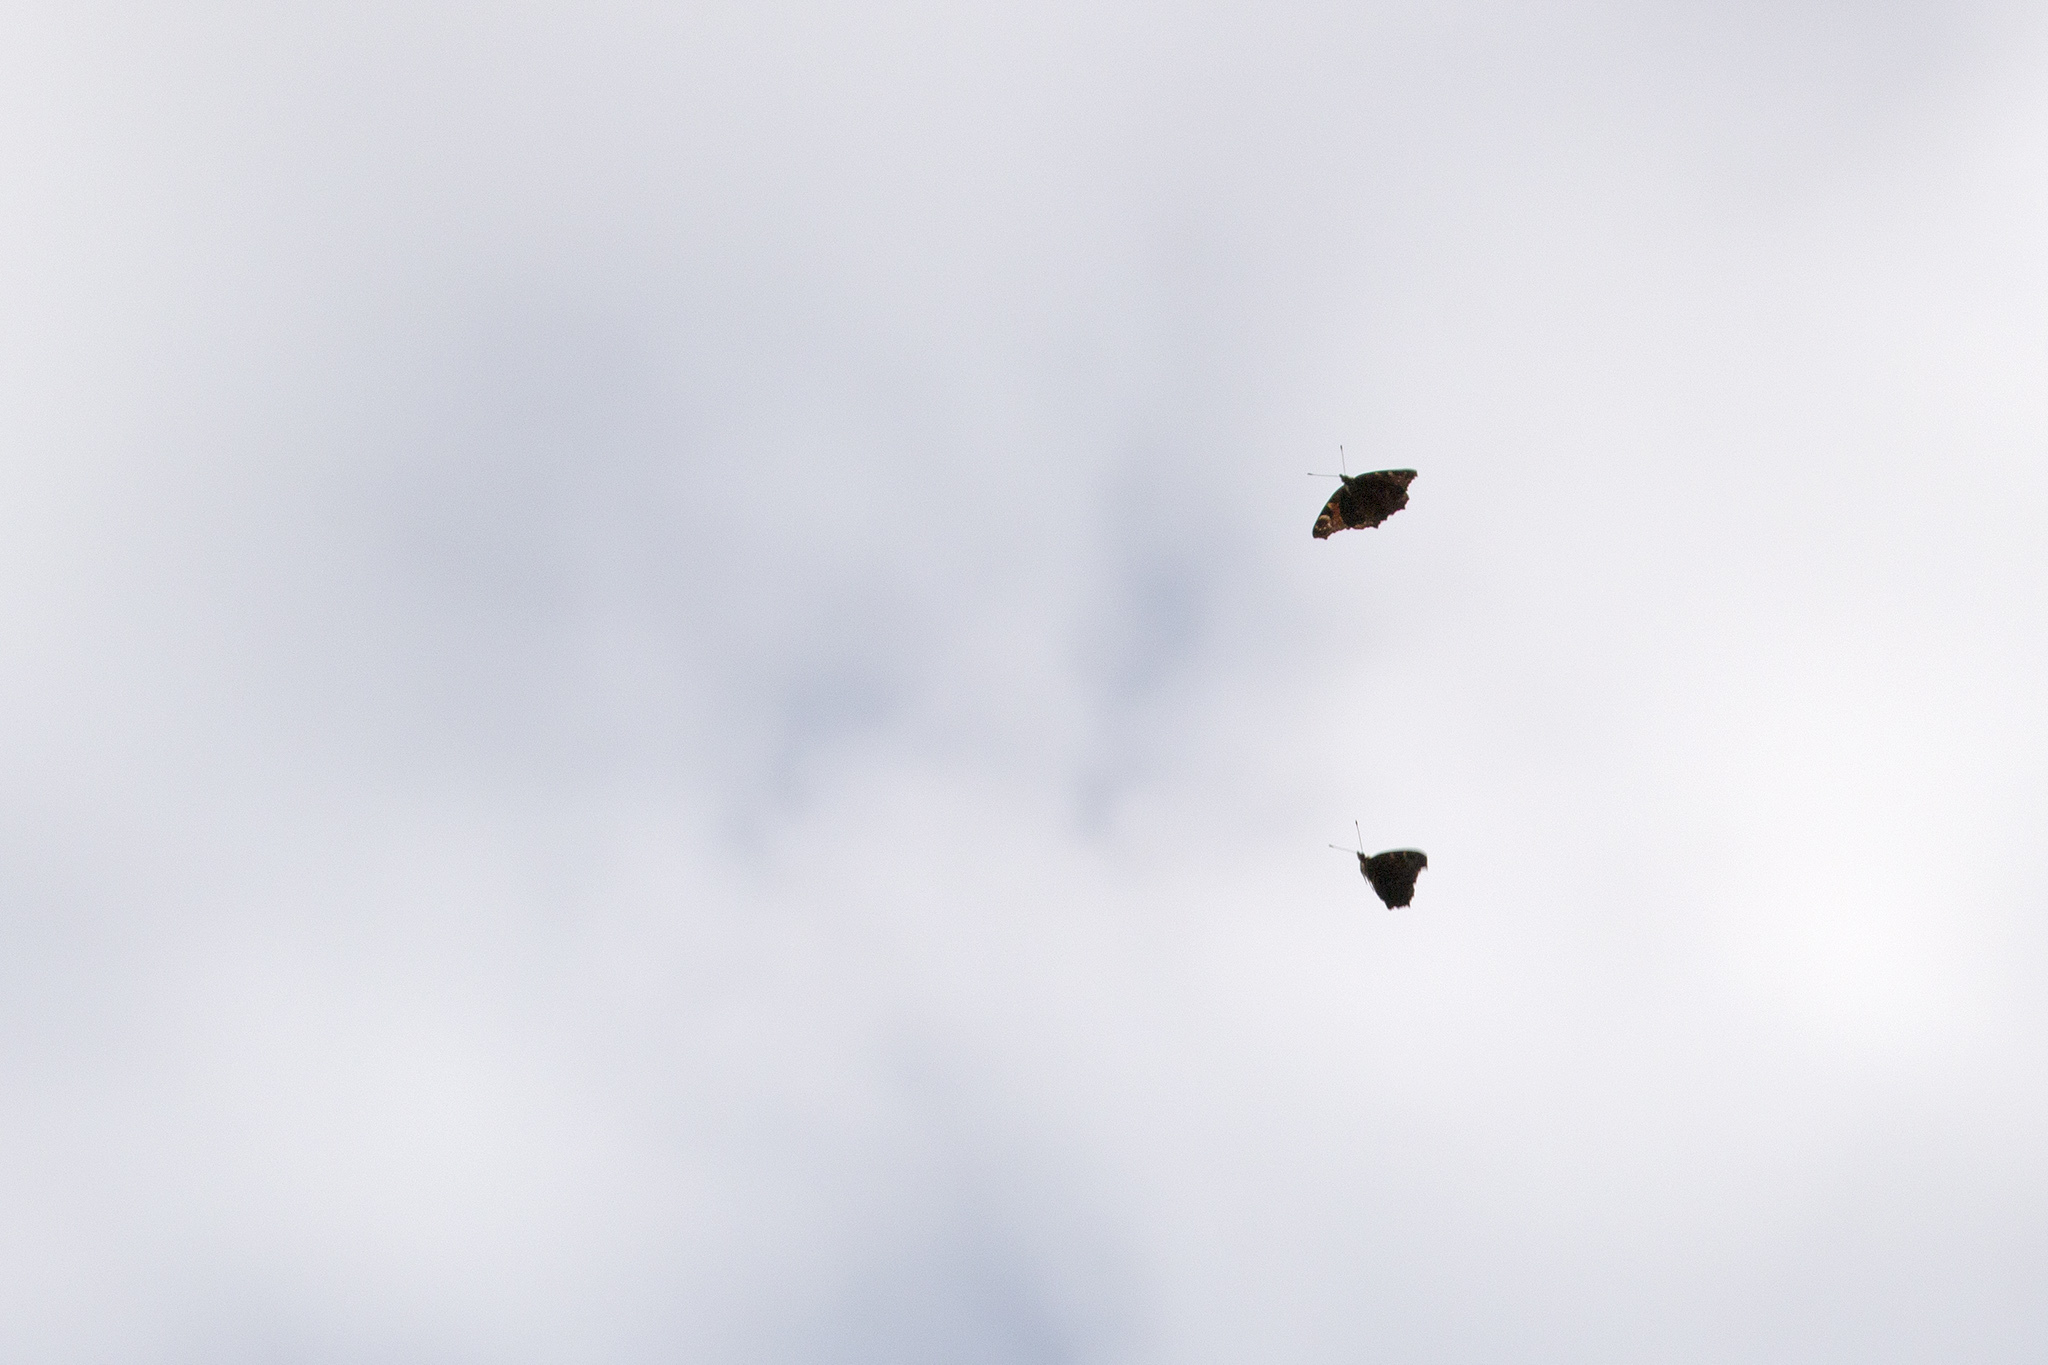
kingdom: Animalia
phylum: Arthropoda
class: Insecta
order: Lepidoptera
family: Nymphalidae
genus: Aglais
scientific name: Aglais io
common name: Peacock
